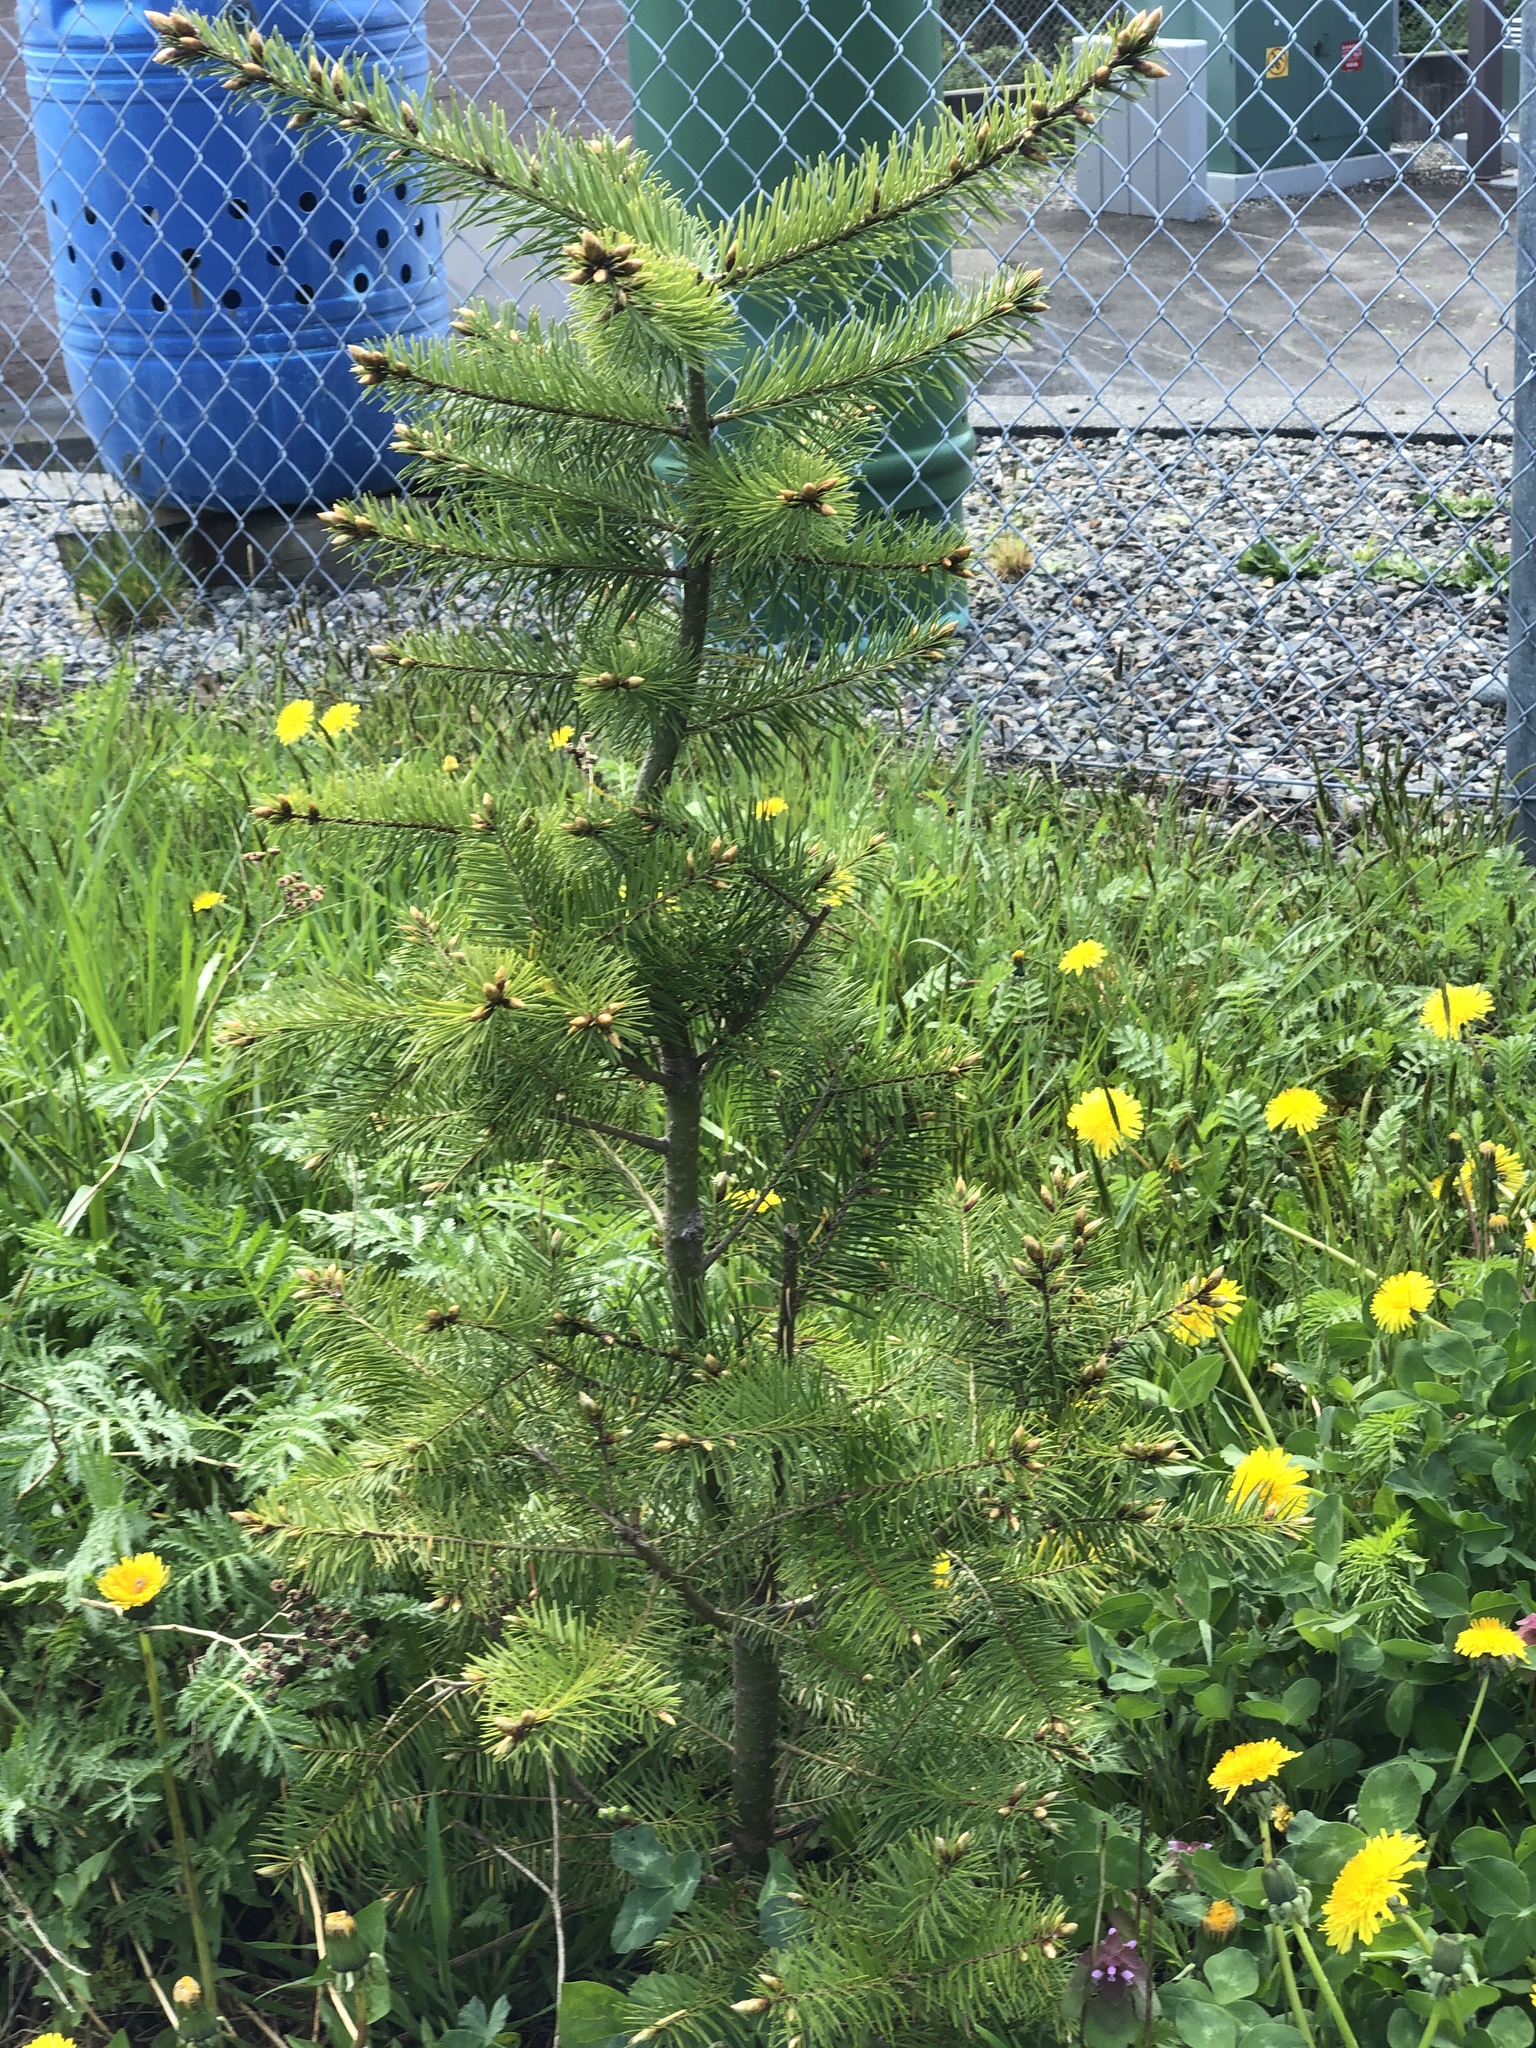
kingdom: Plantae
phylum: Tracheophyta
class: Pinopsida
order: Pinales
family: Pinaceae
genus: Pseudotsuga
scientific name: Pseudotsuga menziesii
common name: Douglas fir
